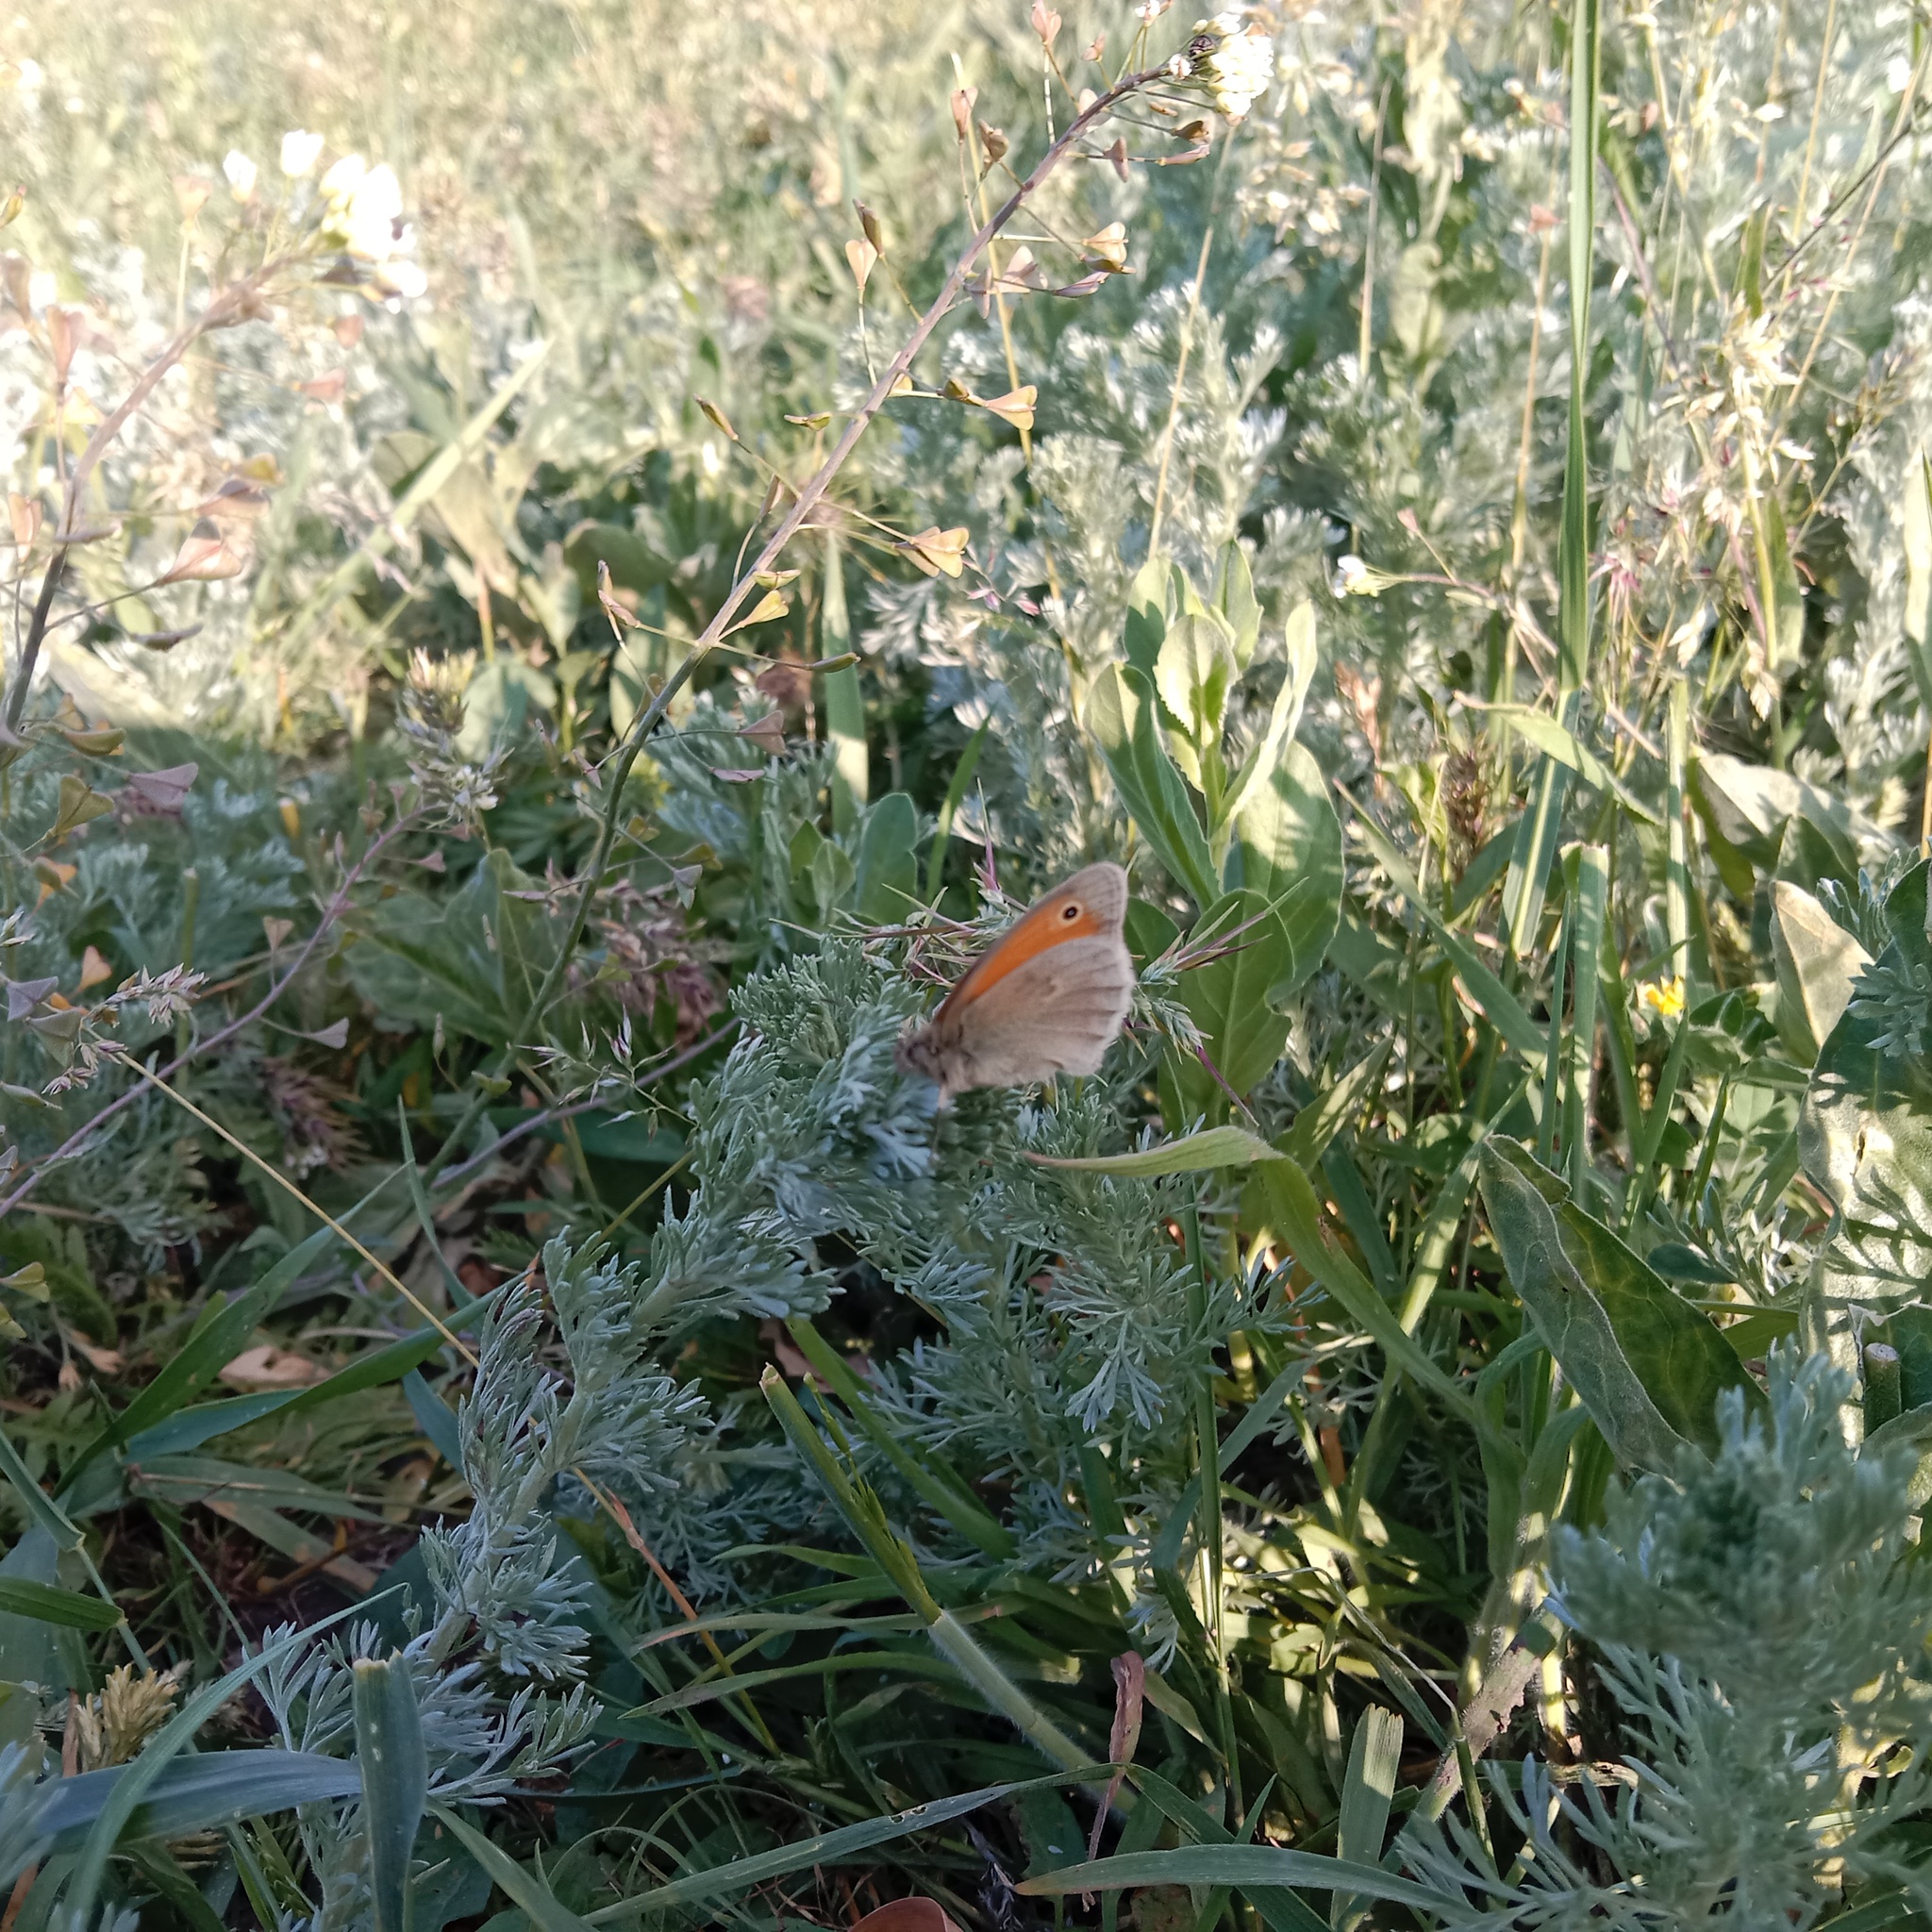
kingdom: Animalia
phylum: Arthropoda
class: Insecta
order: Lepidoptera
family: Nymphalidae
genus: Coenonympha
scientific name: Coenonympha pamphilus
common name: Small heath
